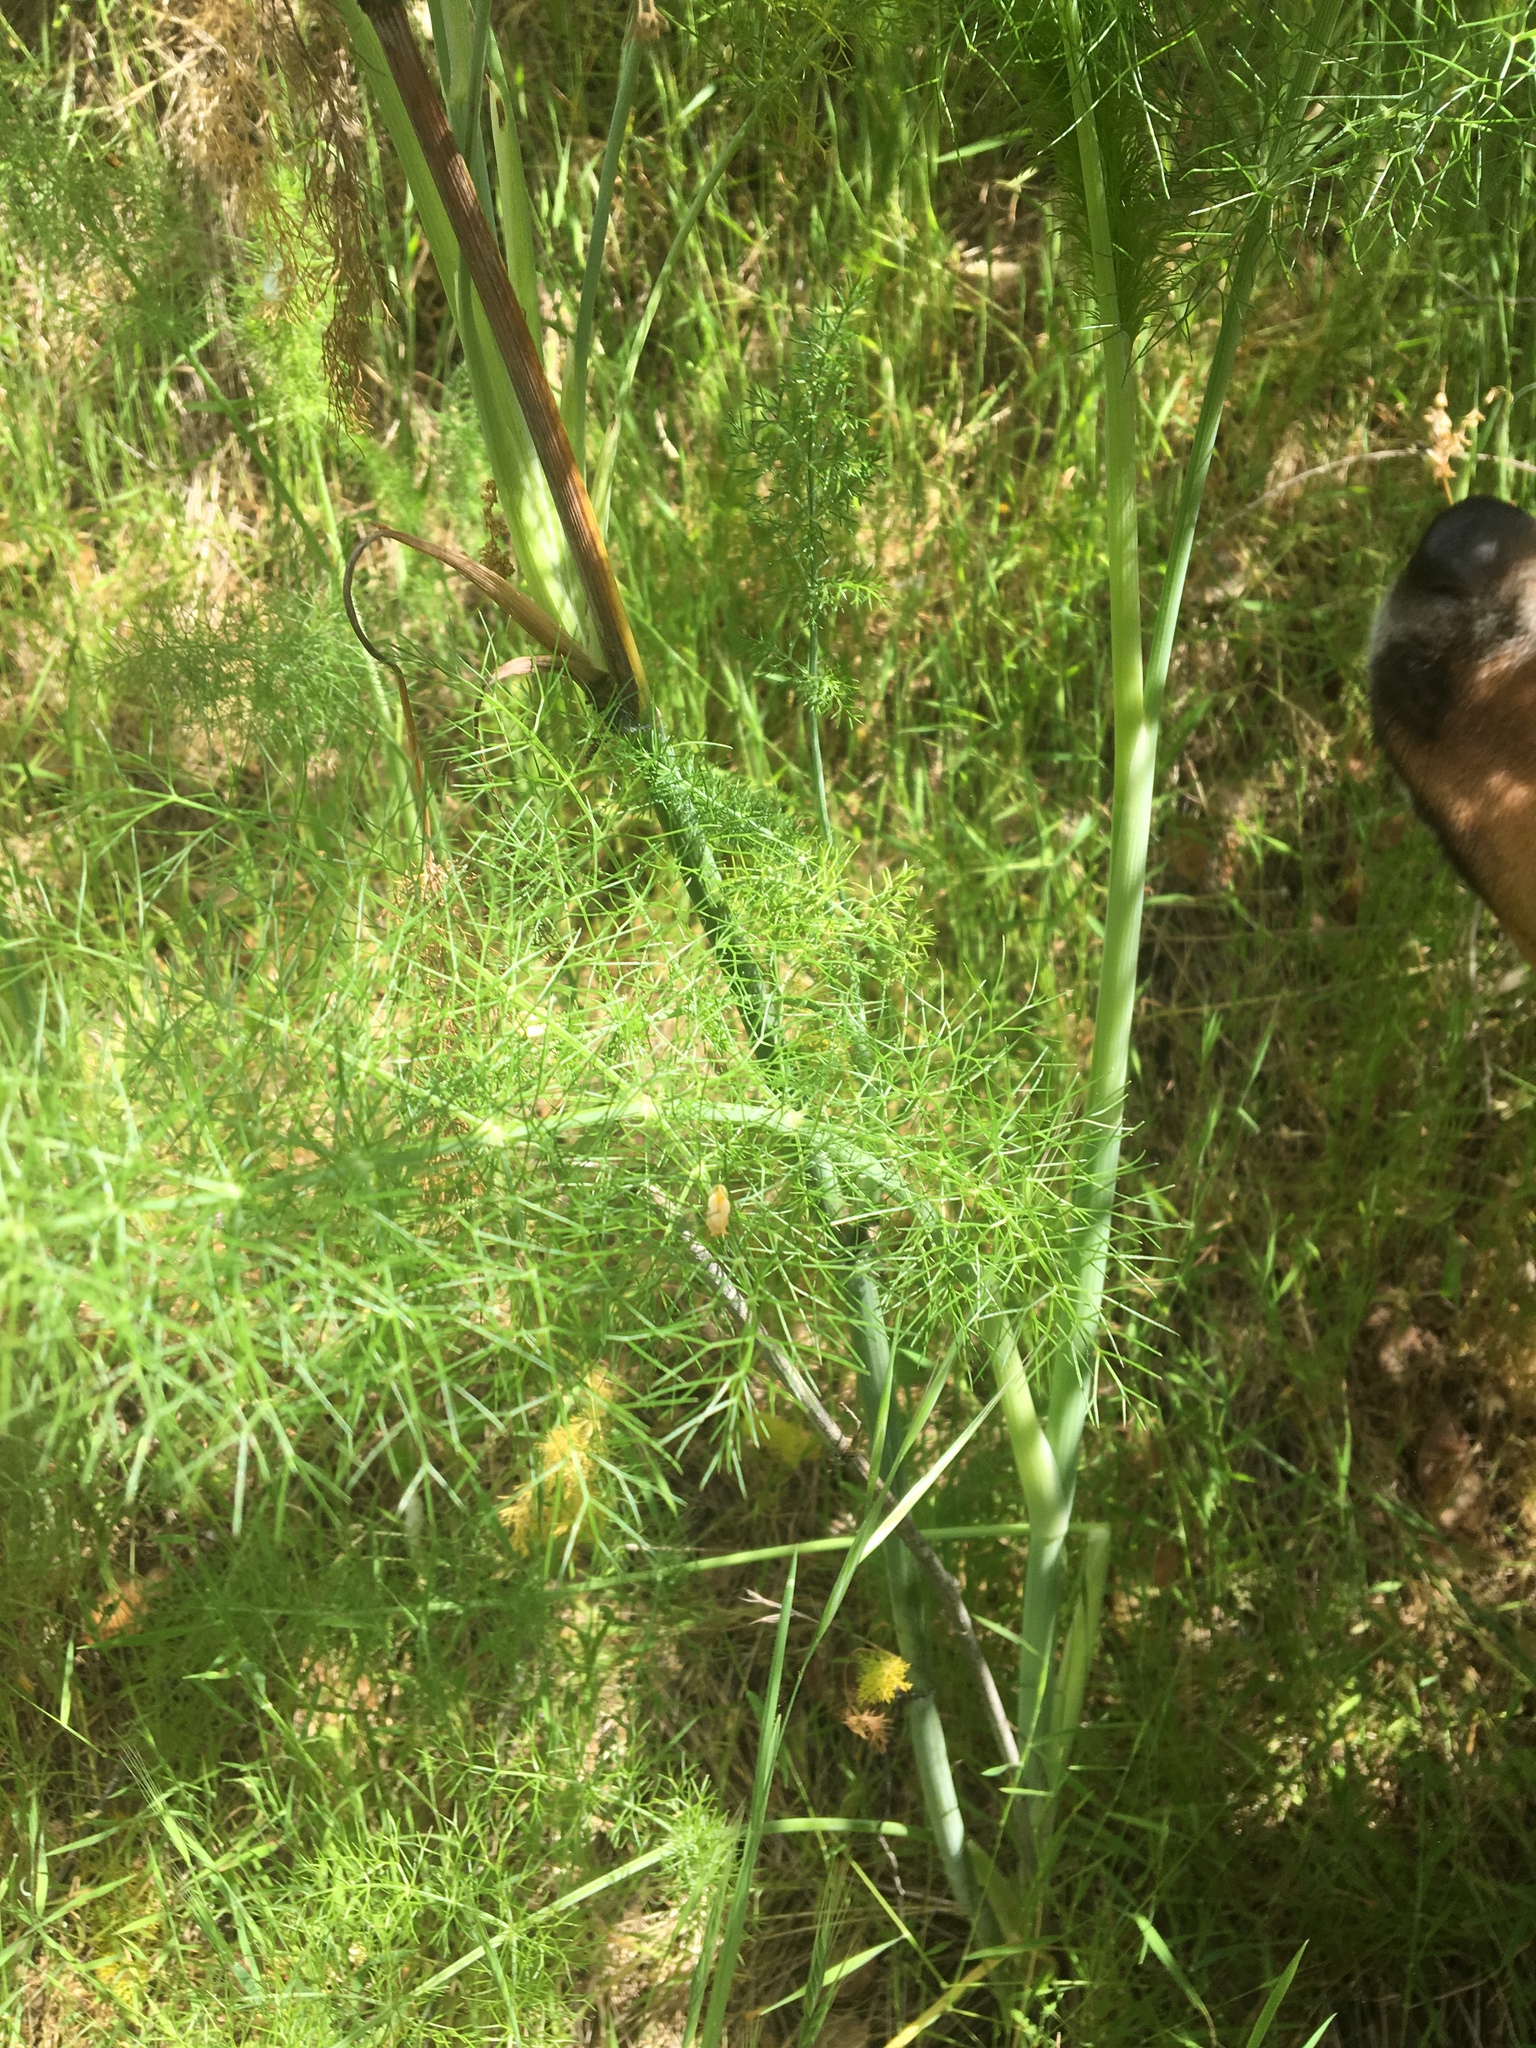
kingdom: Plantae
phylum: Tracheophyta
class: Magnoliopsida
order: Apiales
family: Apiaceae
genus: Foeniculum
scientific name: Foeniculum vulgare
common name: Fennel
